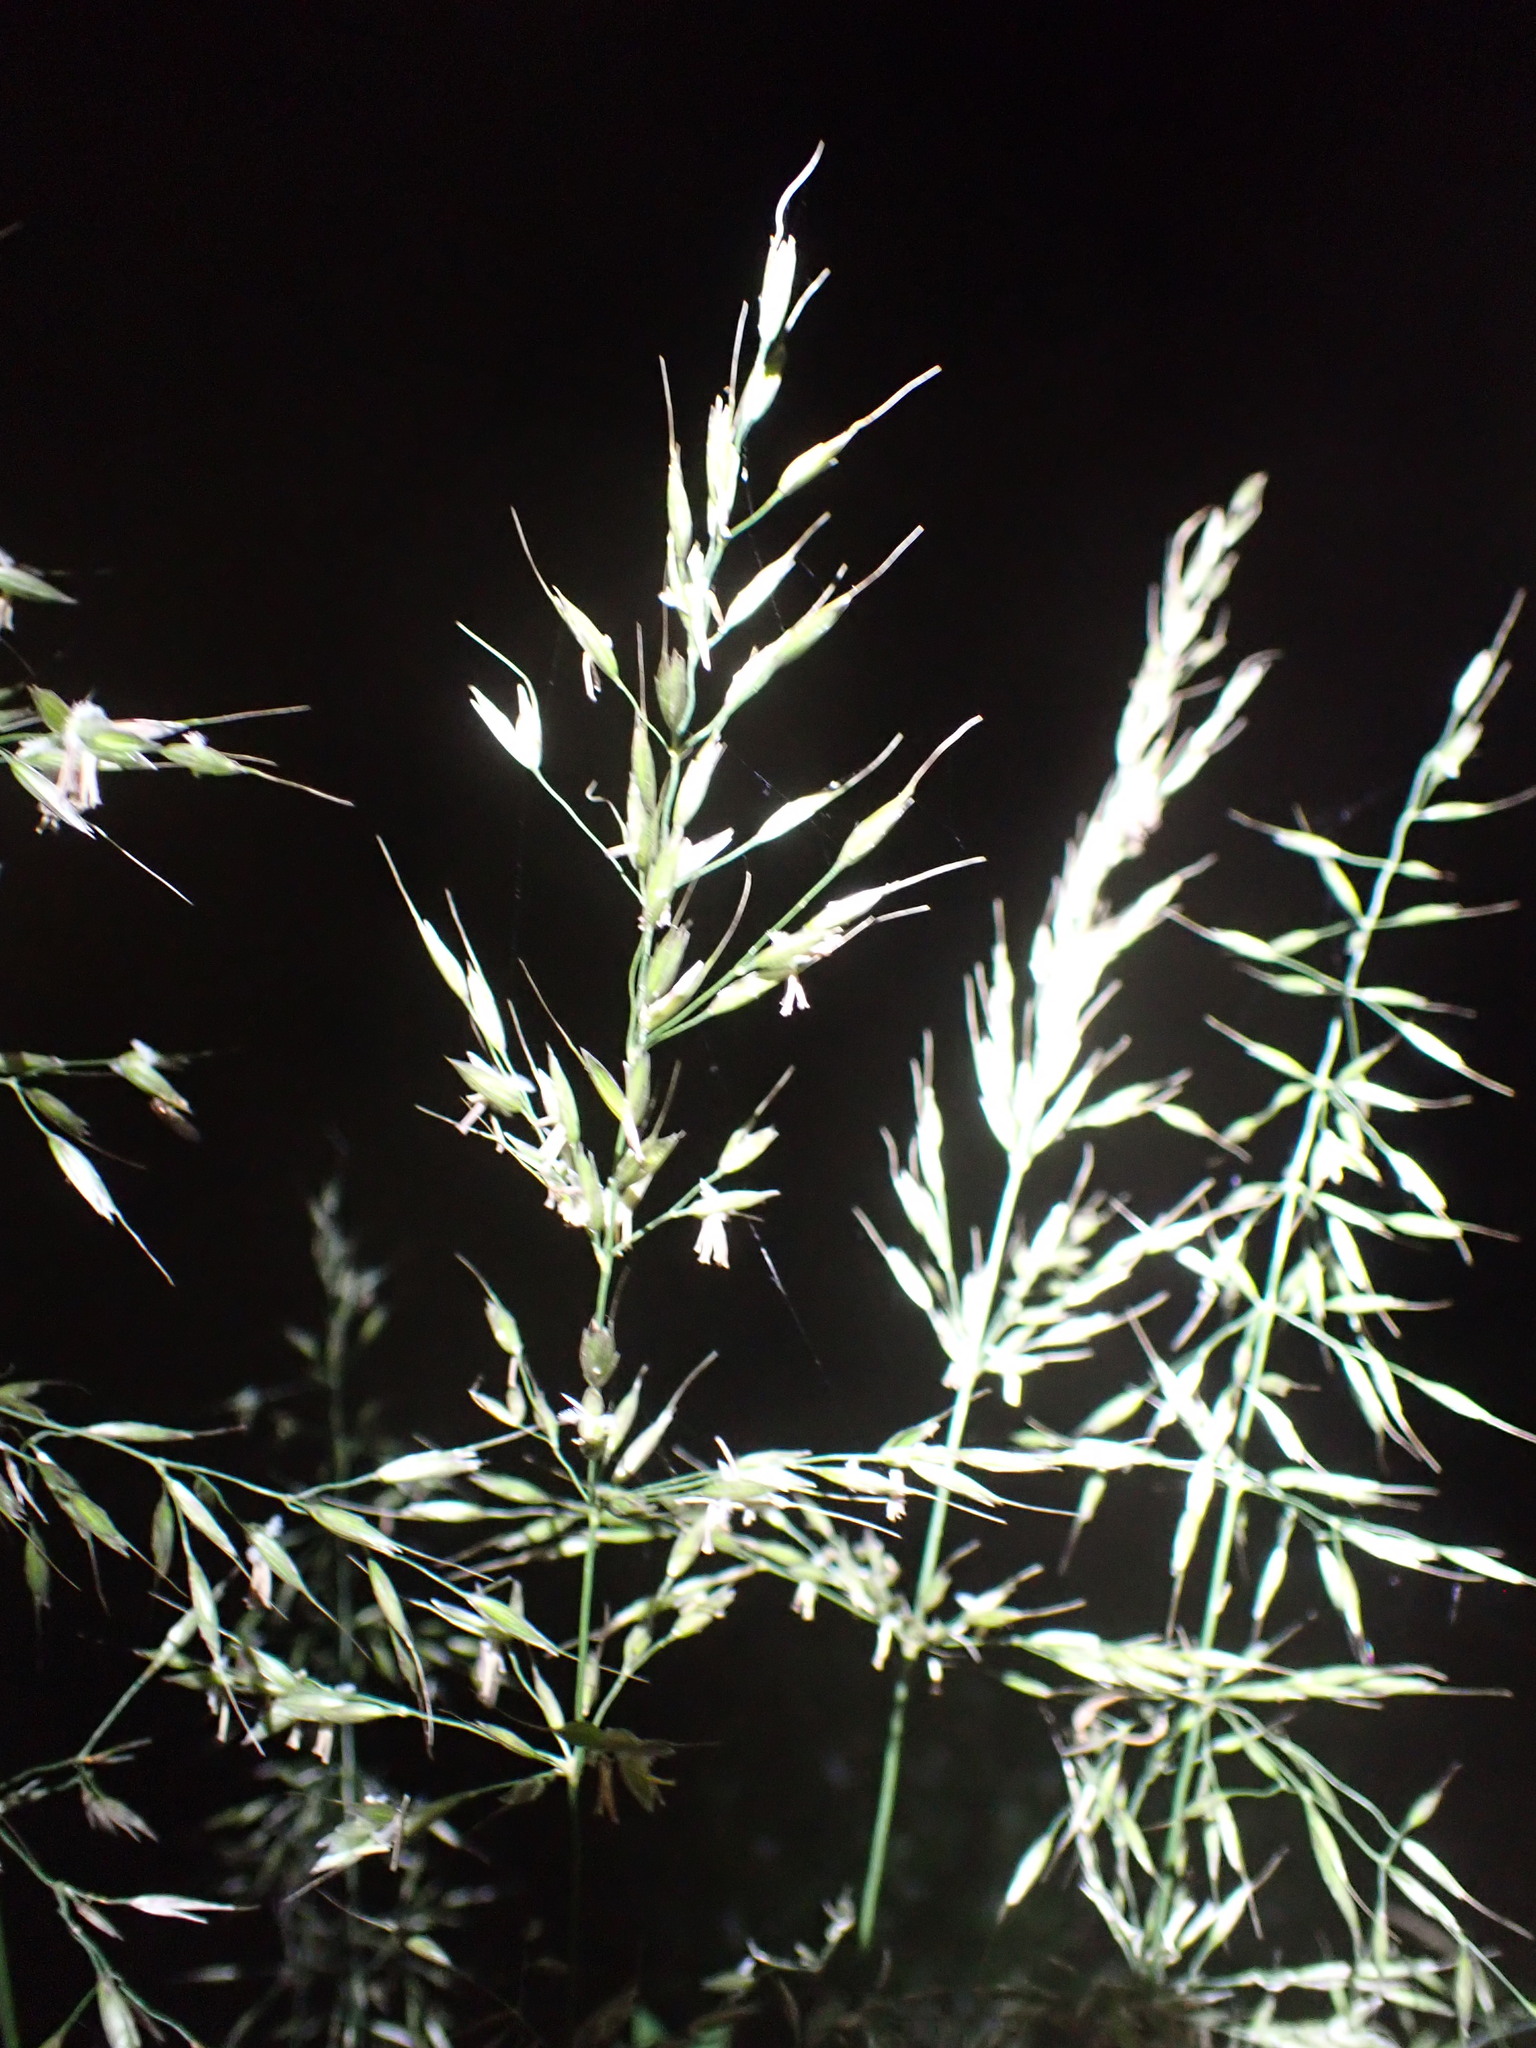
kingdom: Plantae
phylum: Tracheophyta
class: Liliopsida
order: Poales
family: Poaceae
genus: Arrhenatherum
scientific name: Arrhenatherum elatius
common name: Tall oatgrass
